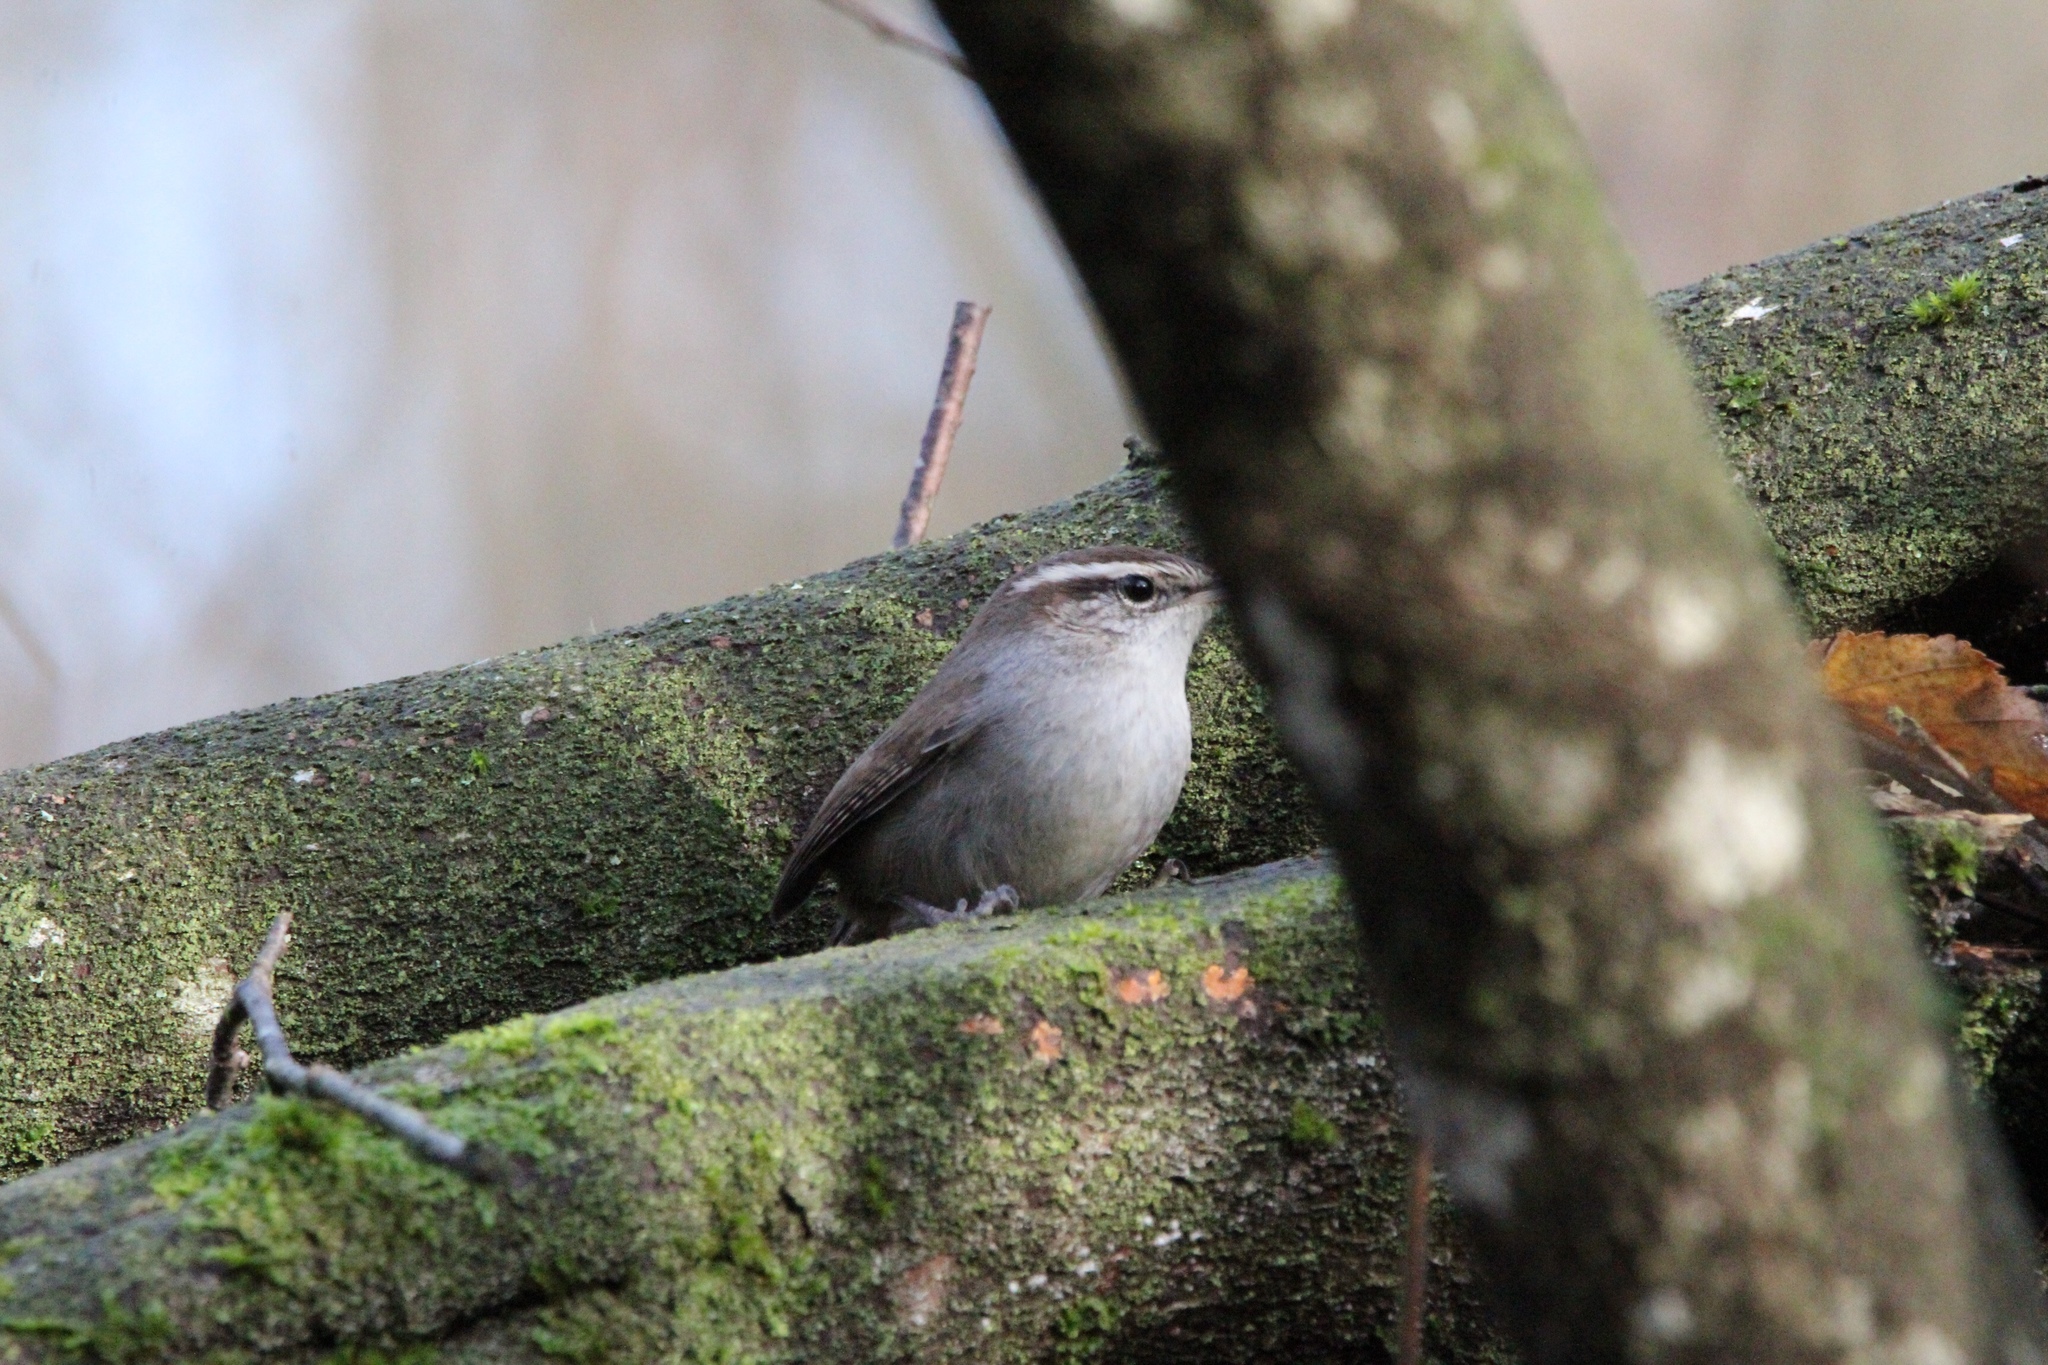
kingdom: Animalia
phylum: Chordata
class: Aves
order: Passeriformes
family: Troglodytidae
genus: Thryomanes
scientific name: Thryomanes bewickii
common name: Bewick's wren
